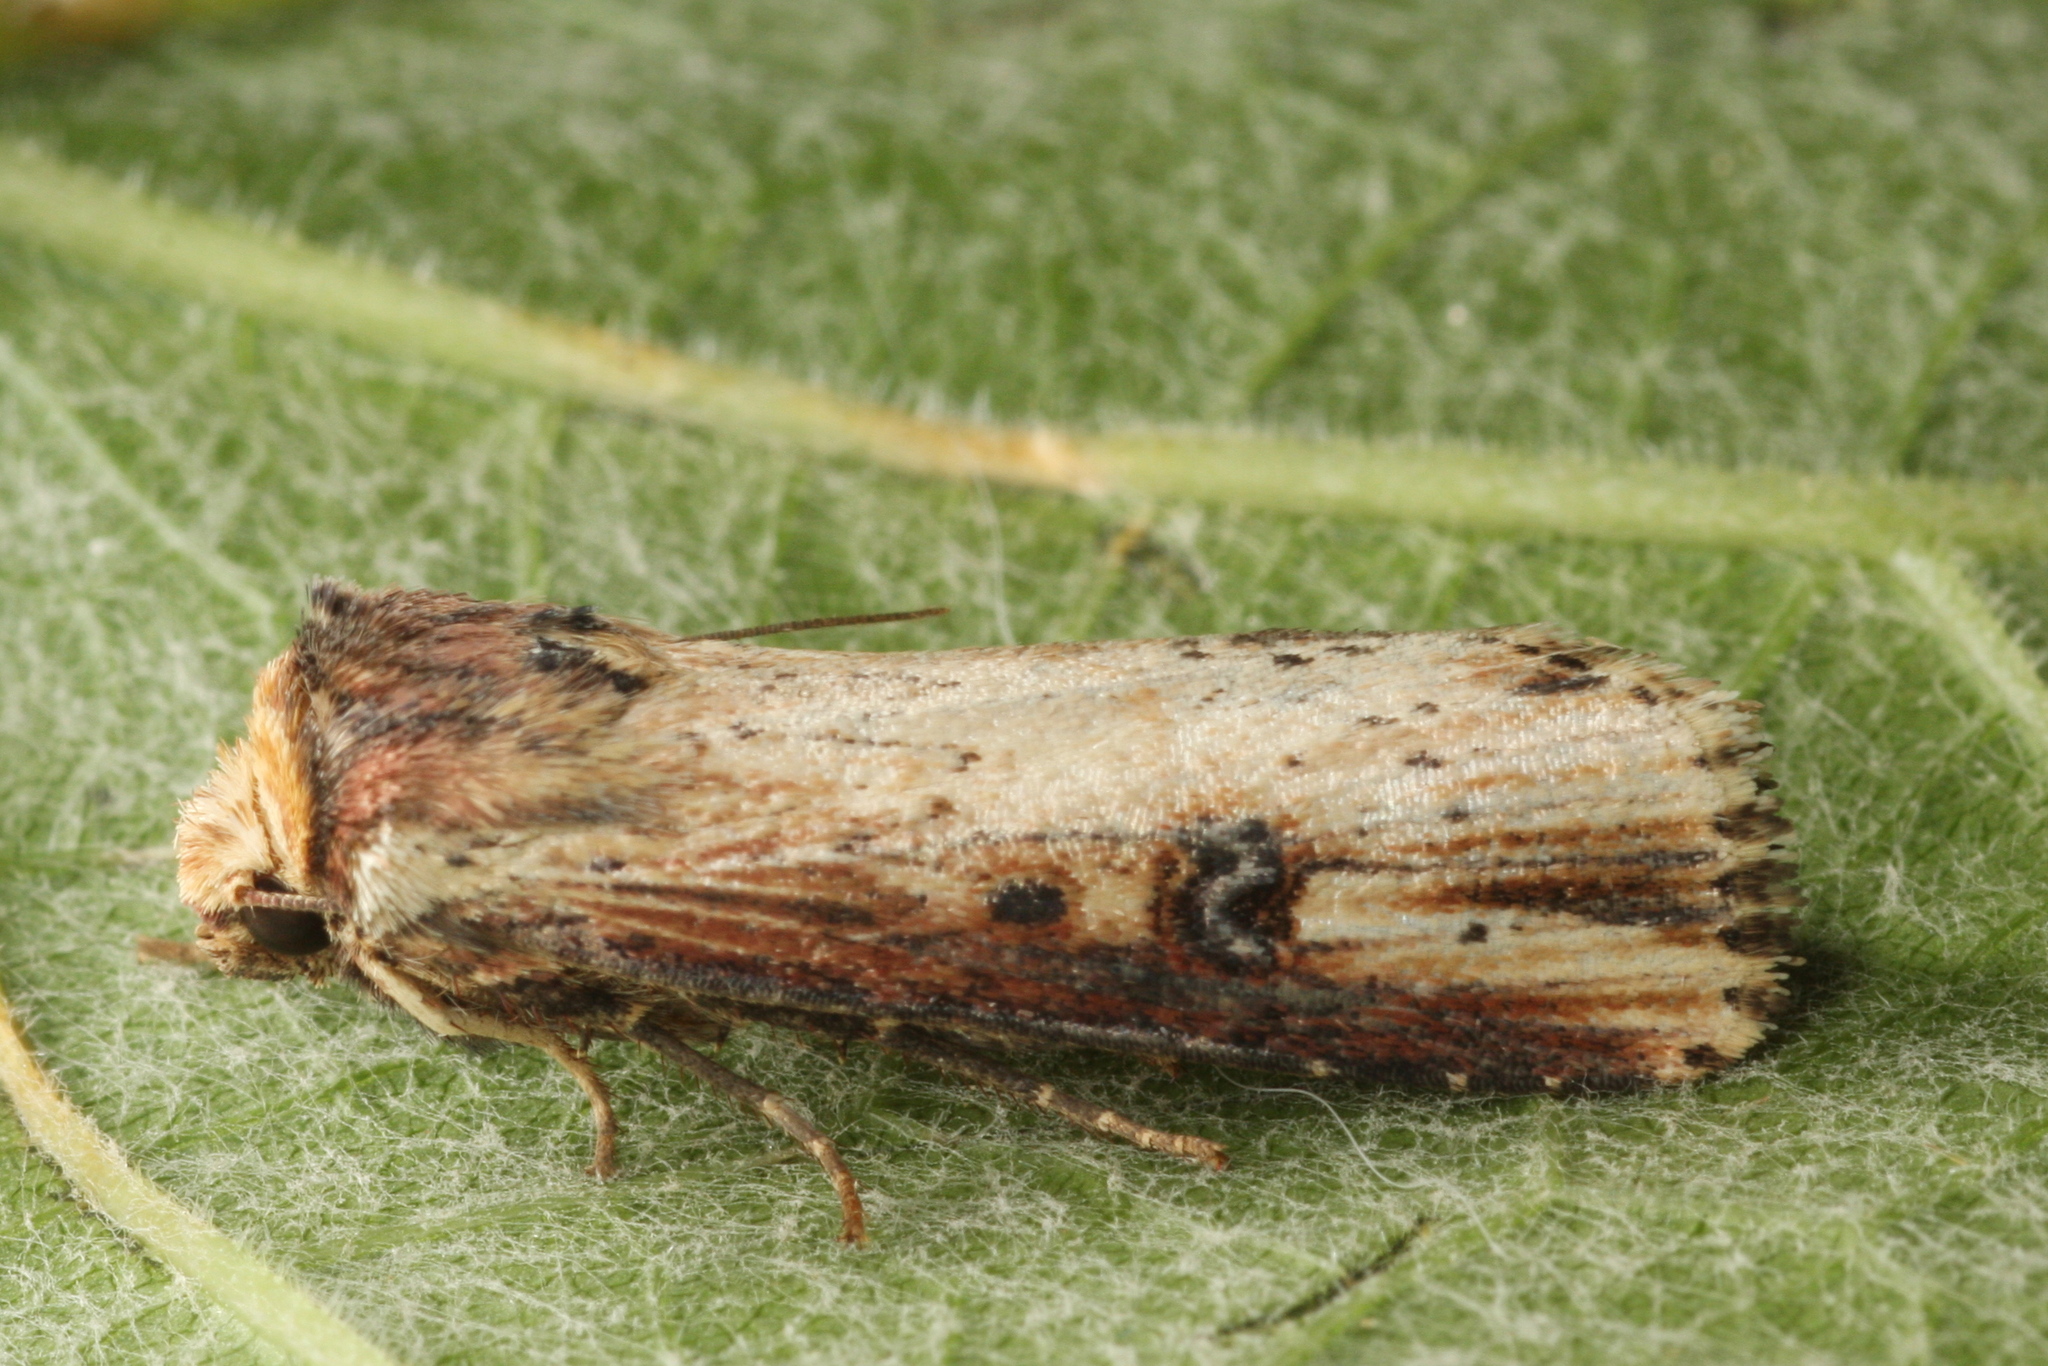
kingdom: Animalia
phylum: Arthropoda
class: Insecta
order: Lepidoptera
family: Noctuidae
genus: Axylia
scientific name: Axylia putris
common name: Flame
